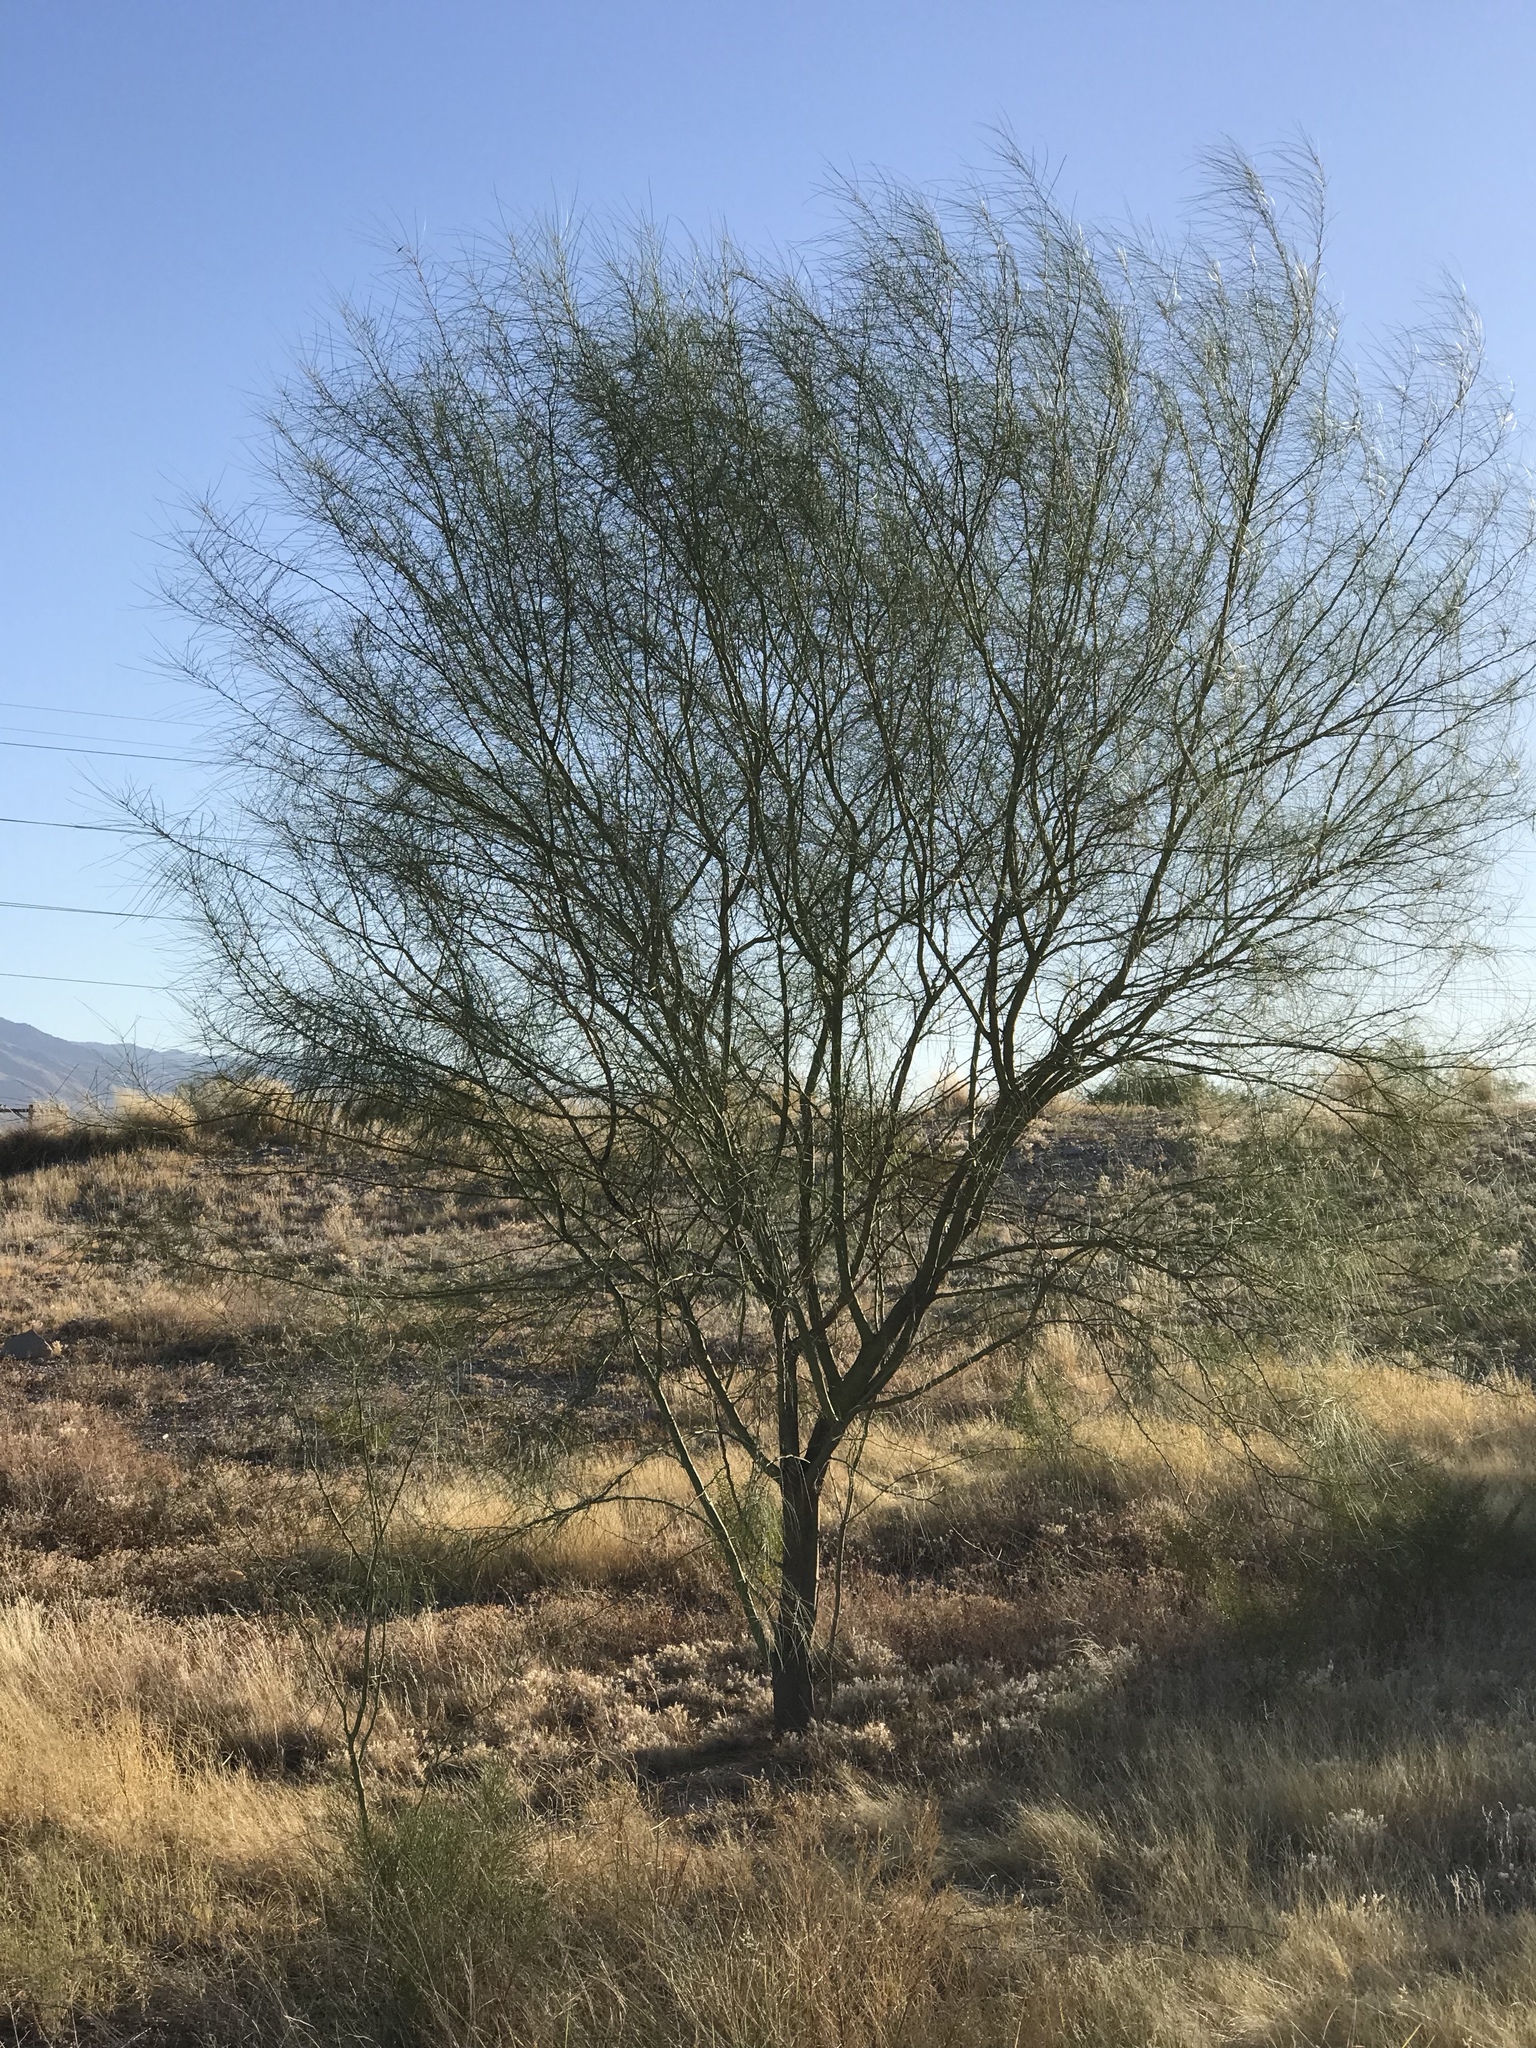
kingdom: Plantae
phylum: Tracheophyta
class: Magnoliopsida
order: Fabales
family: Fabaceae
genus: Parkinsonia
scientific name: Parkinsonia aculeata
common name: Jerusalem thorn
